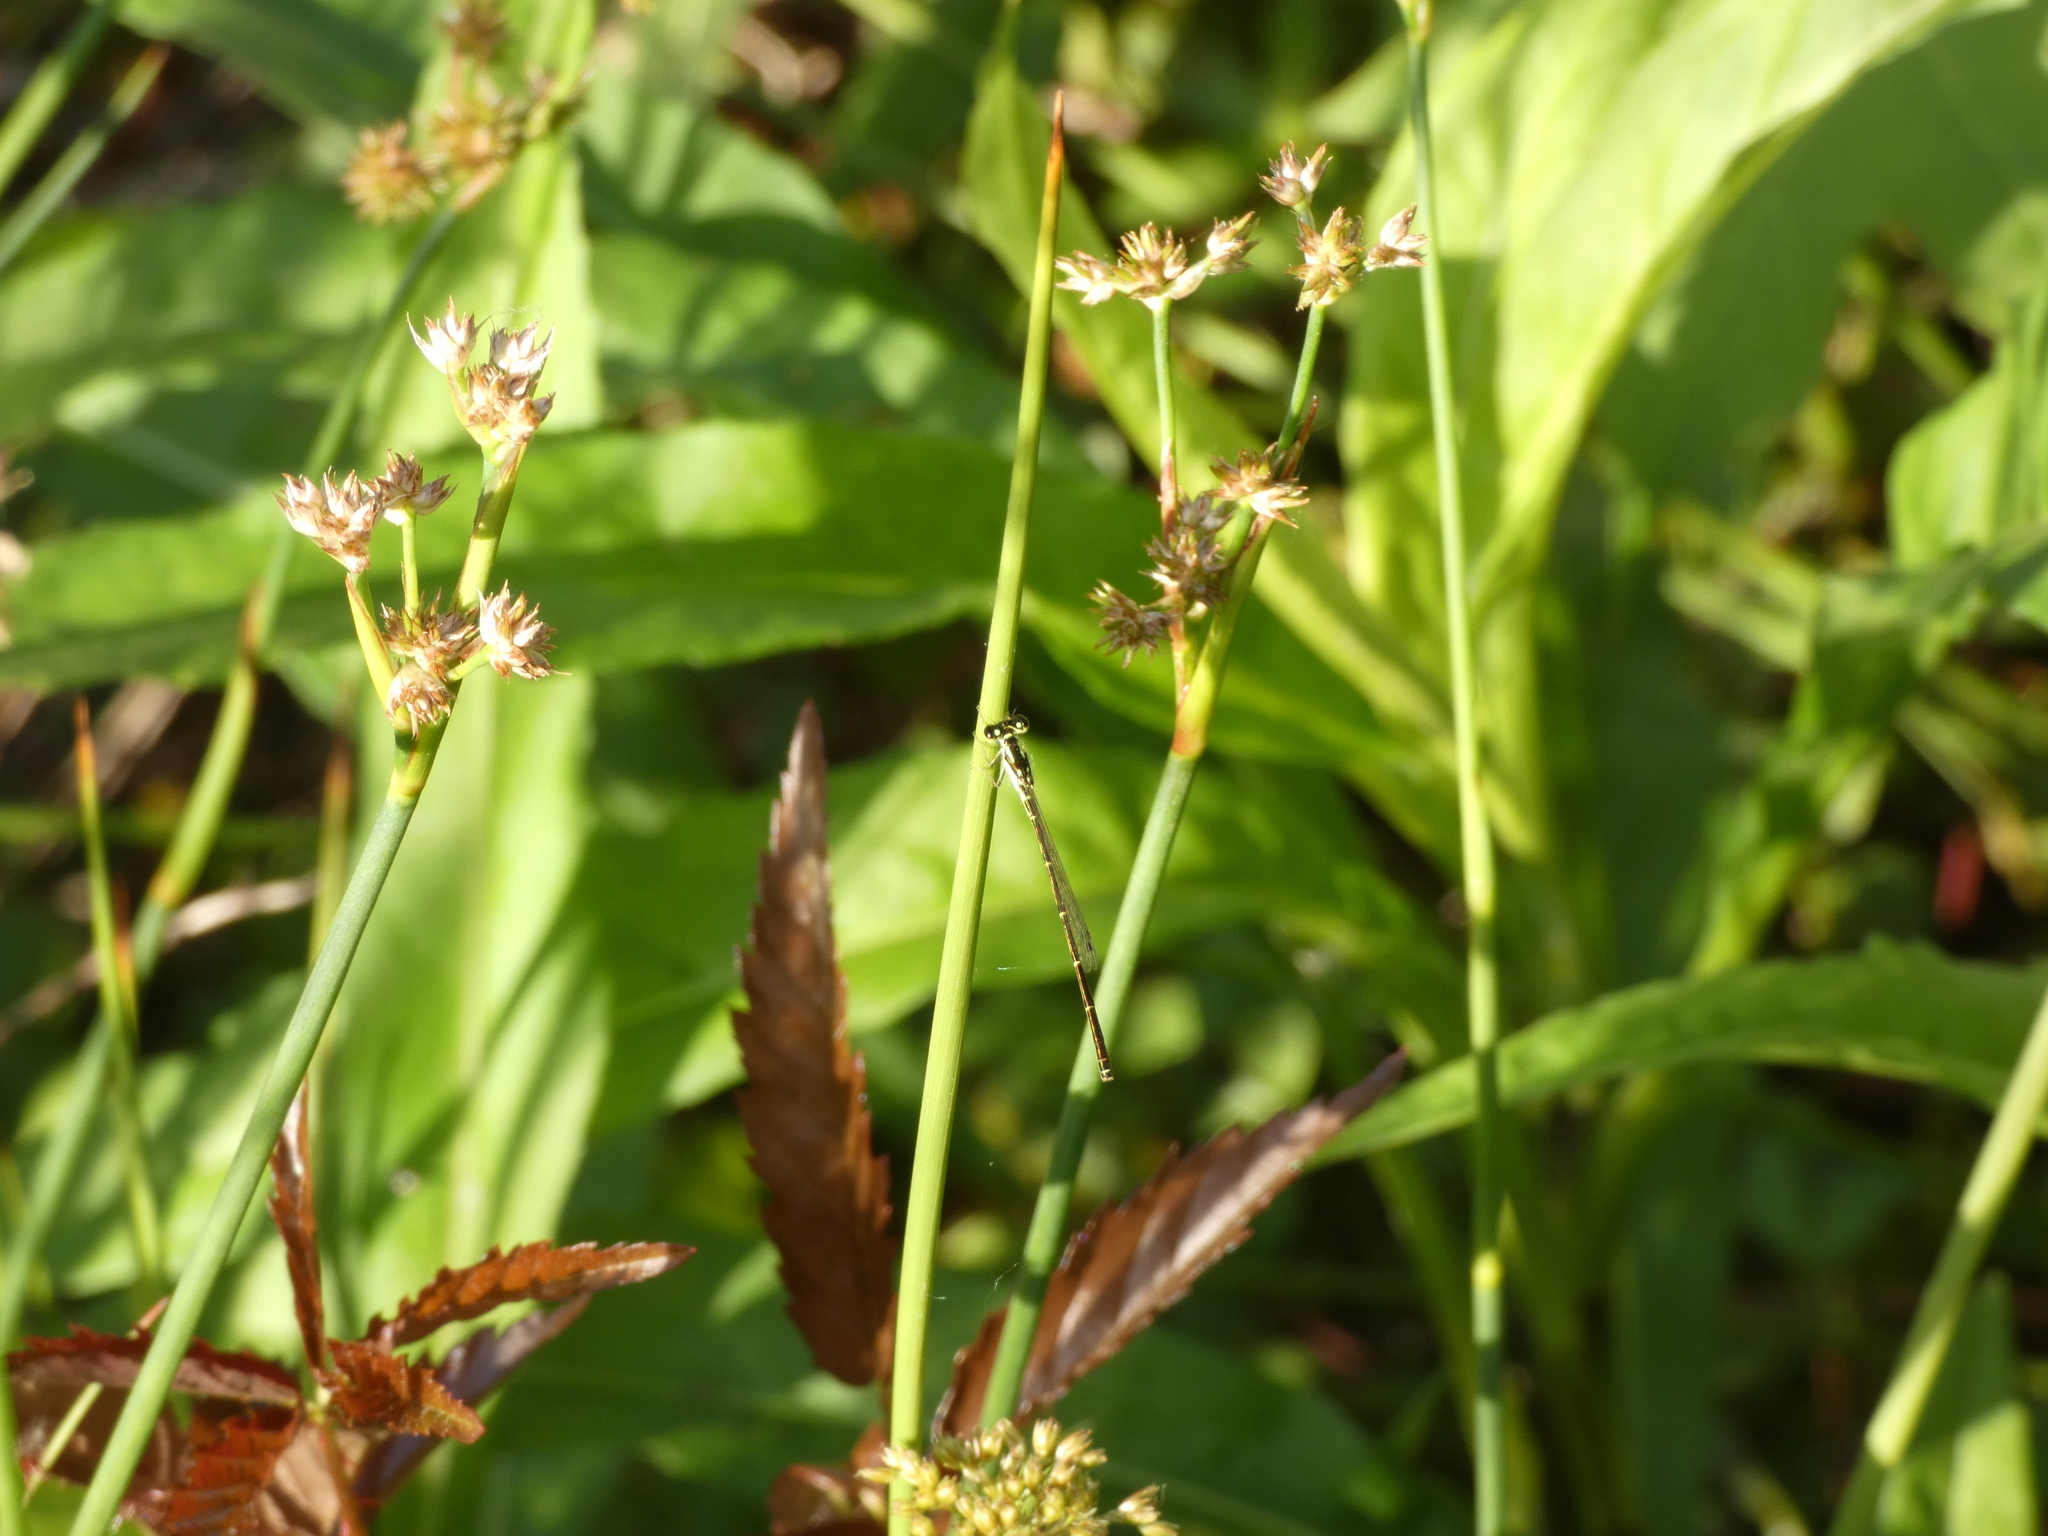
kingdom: Animalia
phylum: Arthropoda
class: Insecta
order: Odonata
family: Coenagrionidae
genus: Ischnura
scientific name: Ischnura posita
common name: Fragile forktail
